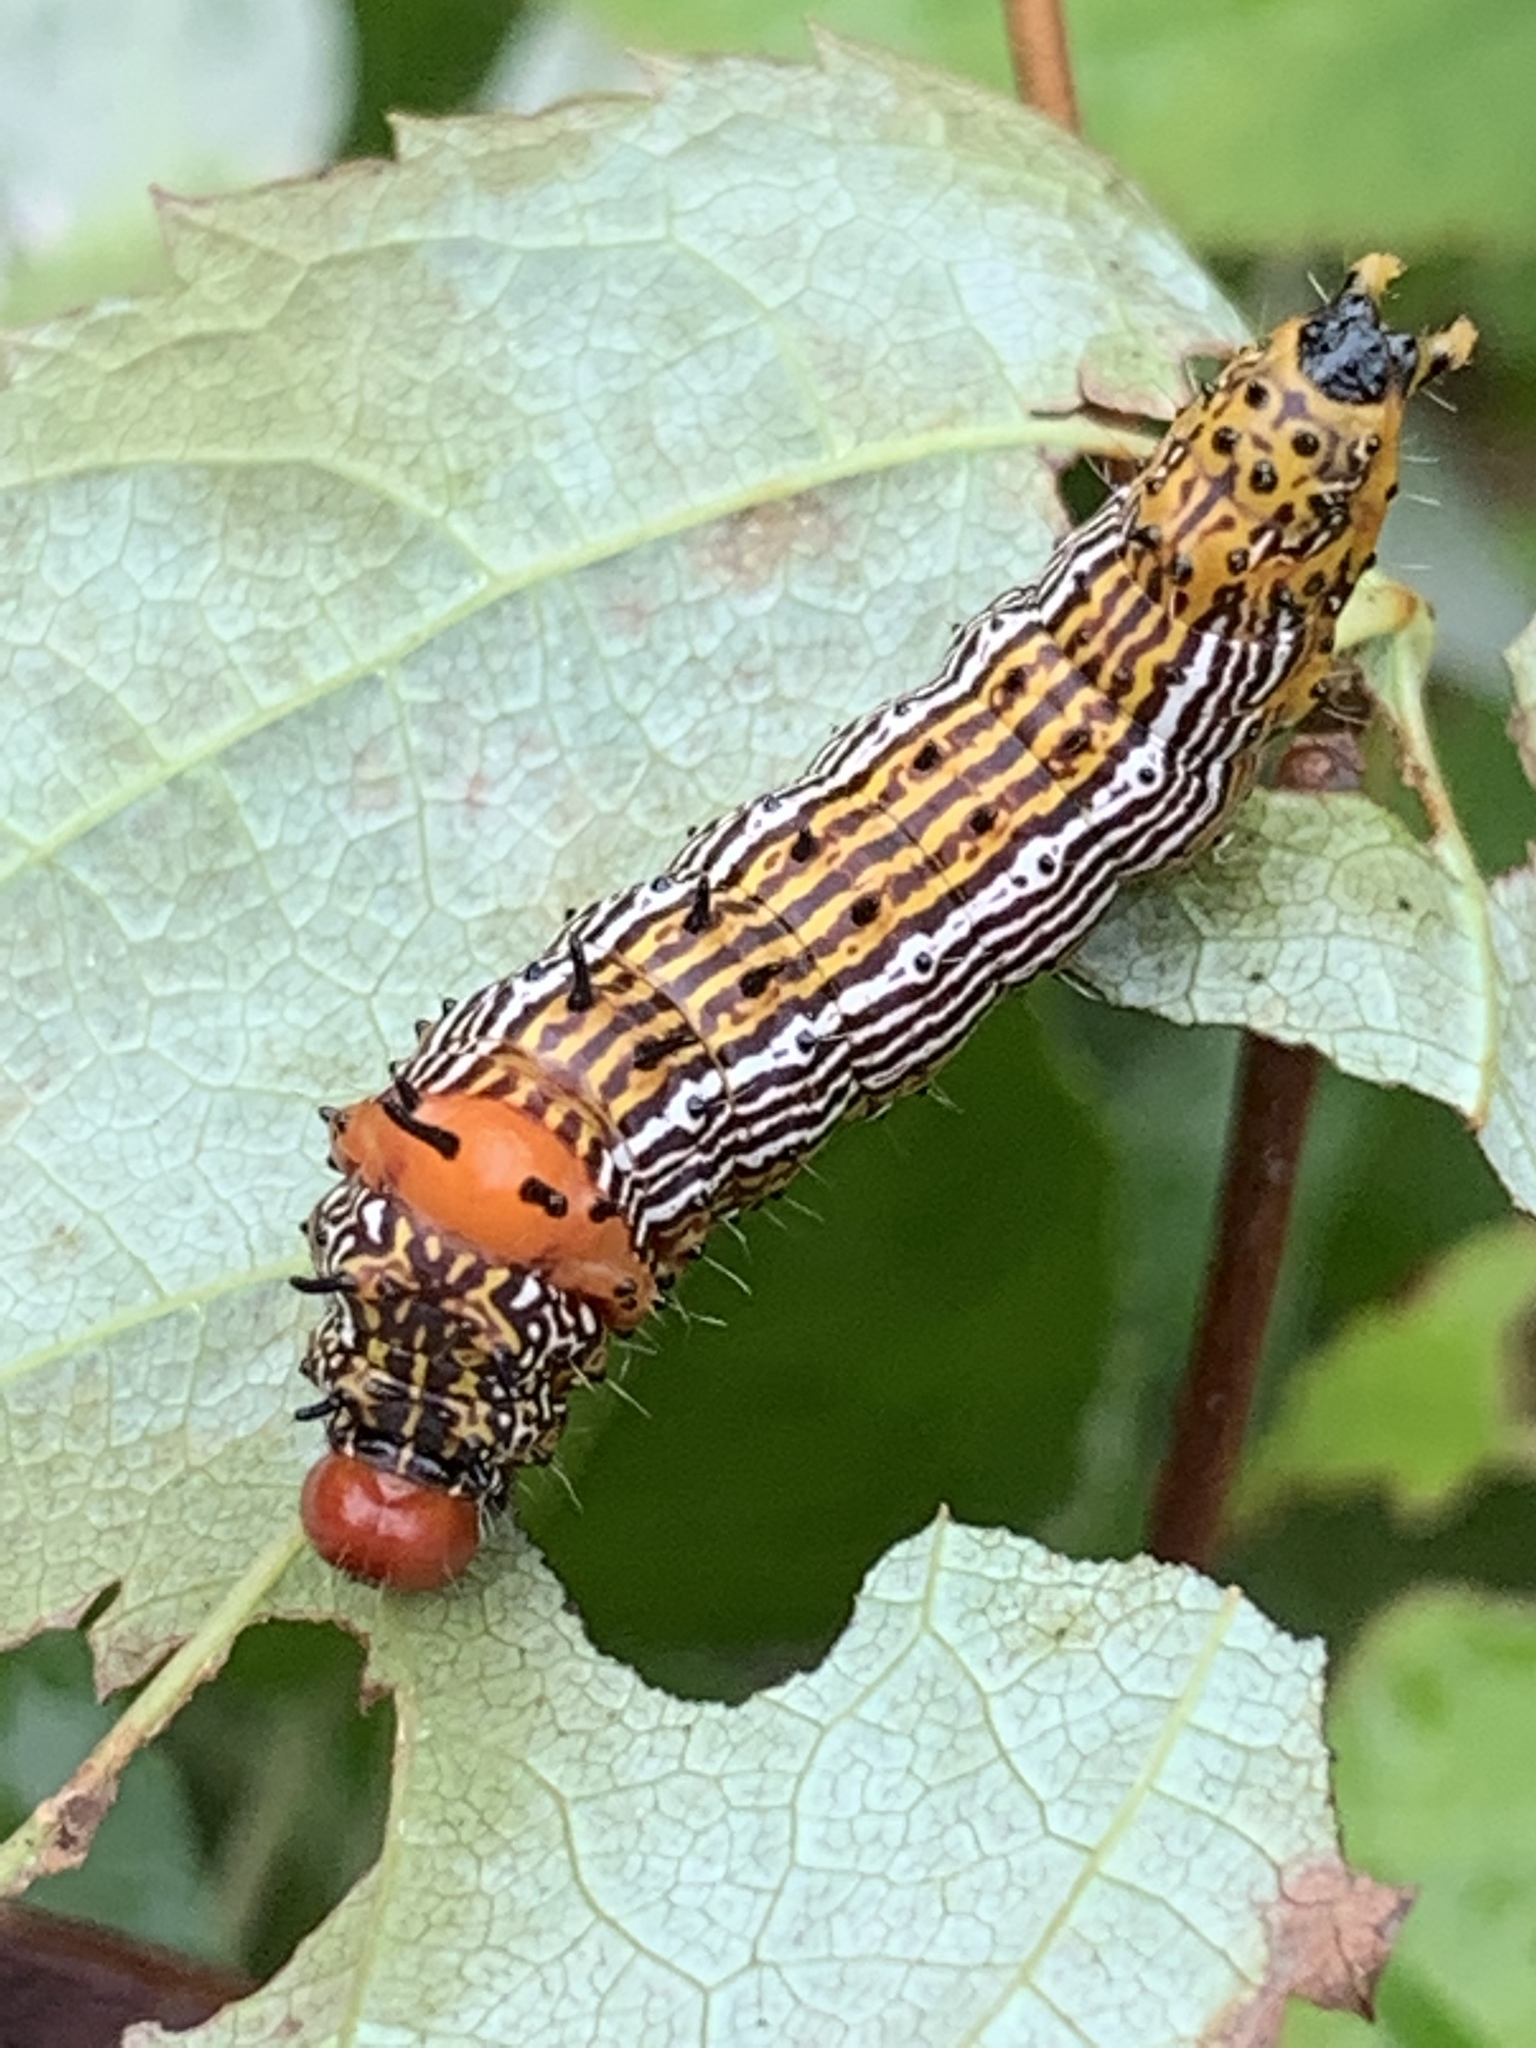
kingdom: Animalia
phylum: Arthropoda
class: Insecta
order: Lepidoptera
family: Notodontidae
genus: Schizura
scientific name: Schizura
